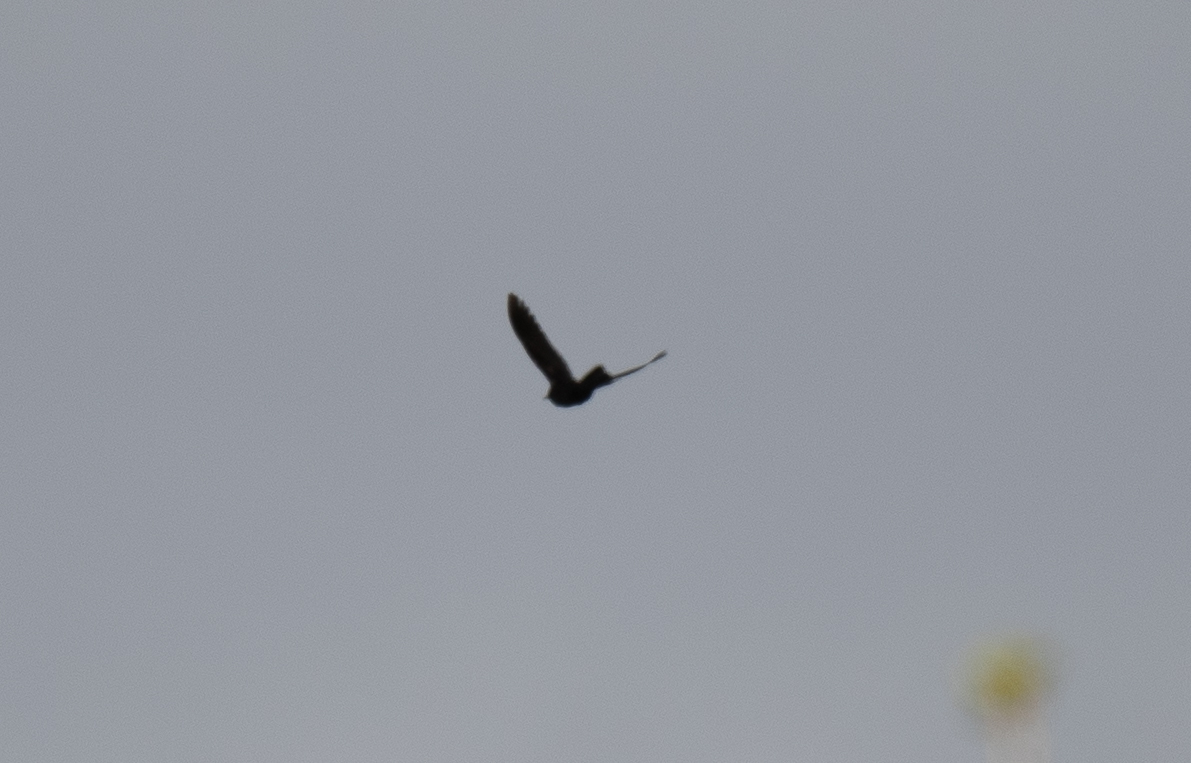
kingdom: Animalia
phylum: Chordata
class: Aves
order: Passeriformes
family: Icteridae
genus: Quiscalus
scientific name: Quiscalus mexicanus
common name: Great-tailed grackle
